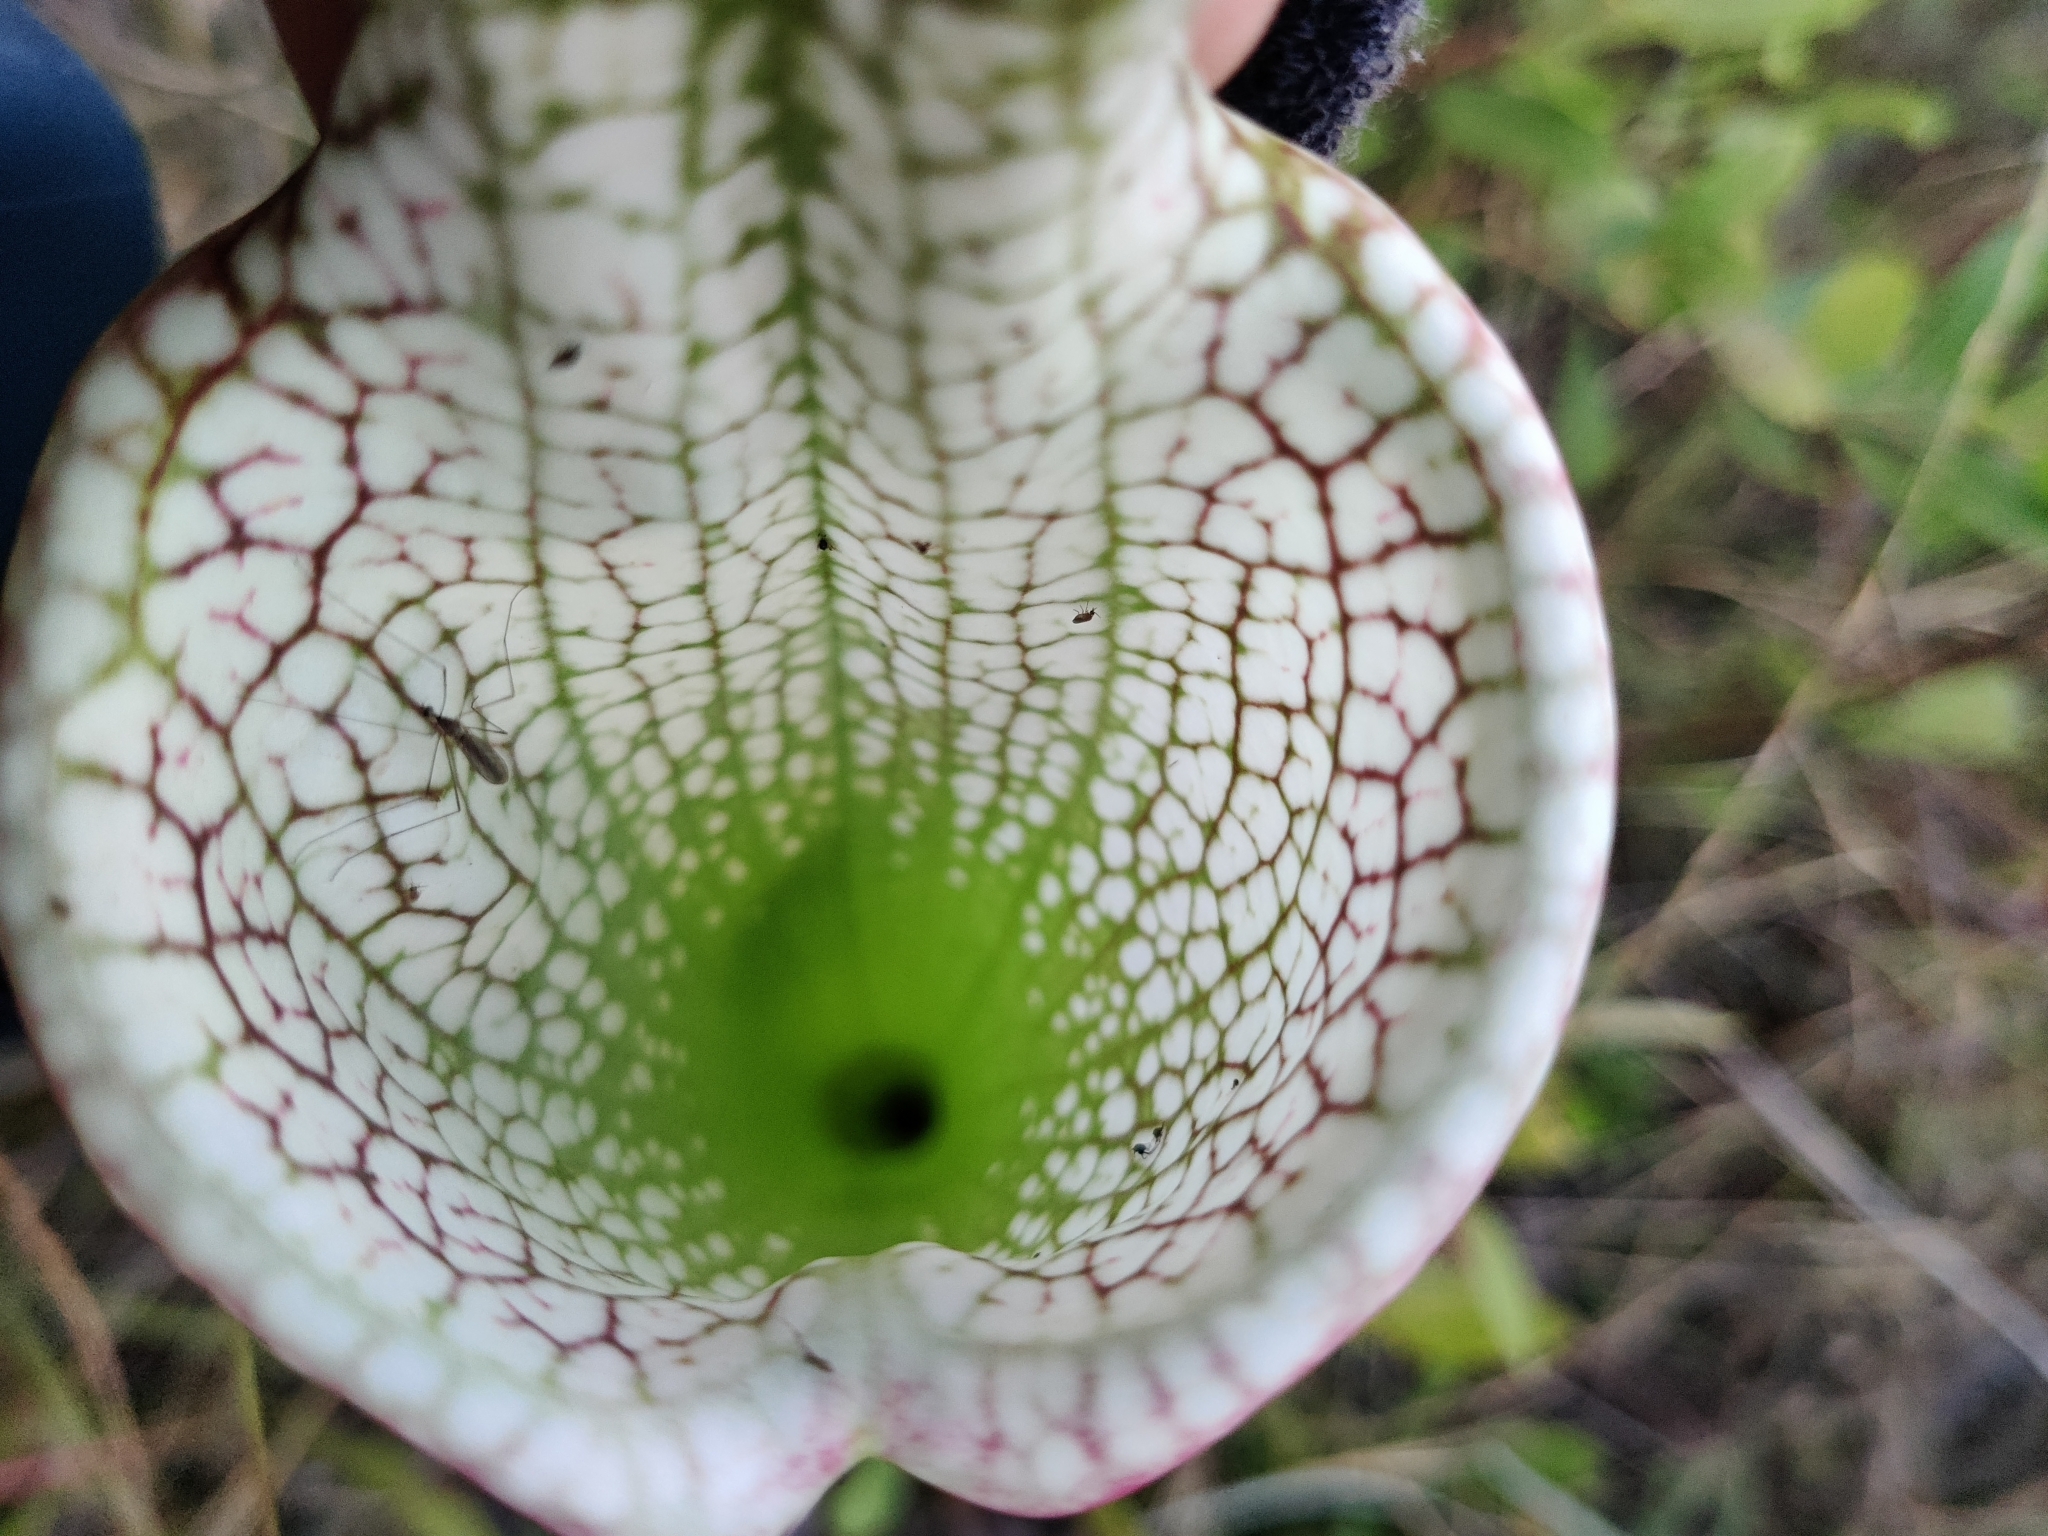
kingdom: Plantae
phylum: Tracheophyta
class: Magnoliopsida
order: Ericales
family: Sarraceniaceae
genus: Sarracenia
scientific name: Sarracenia leucophylla
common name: Purple trumpetleaf
